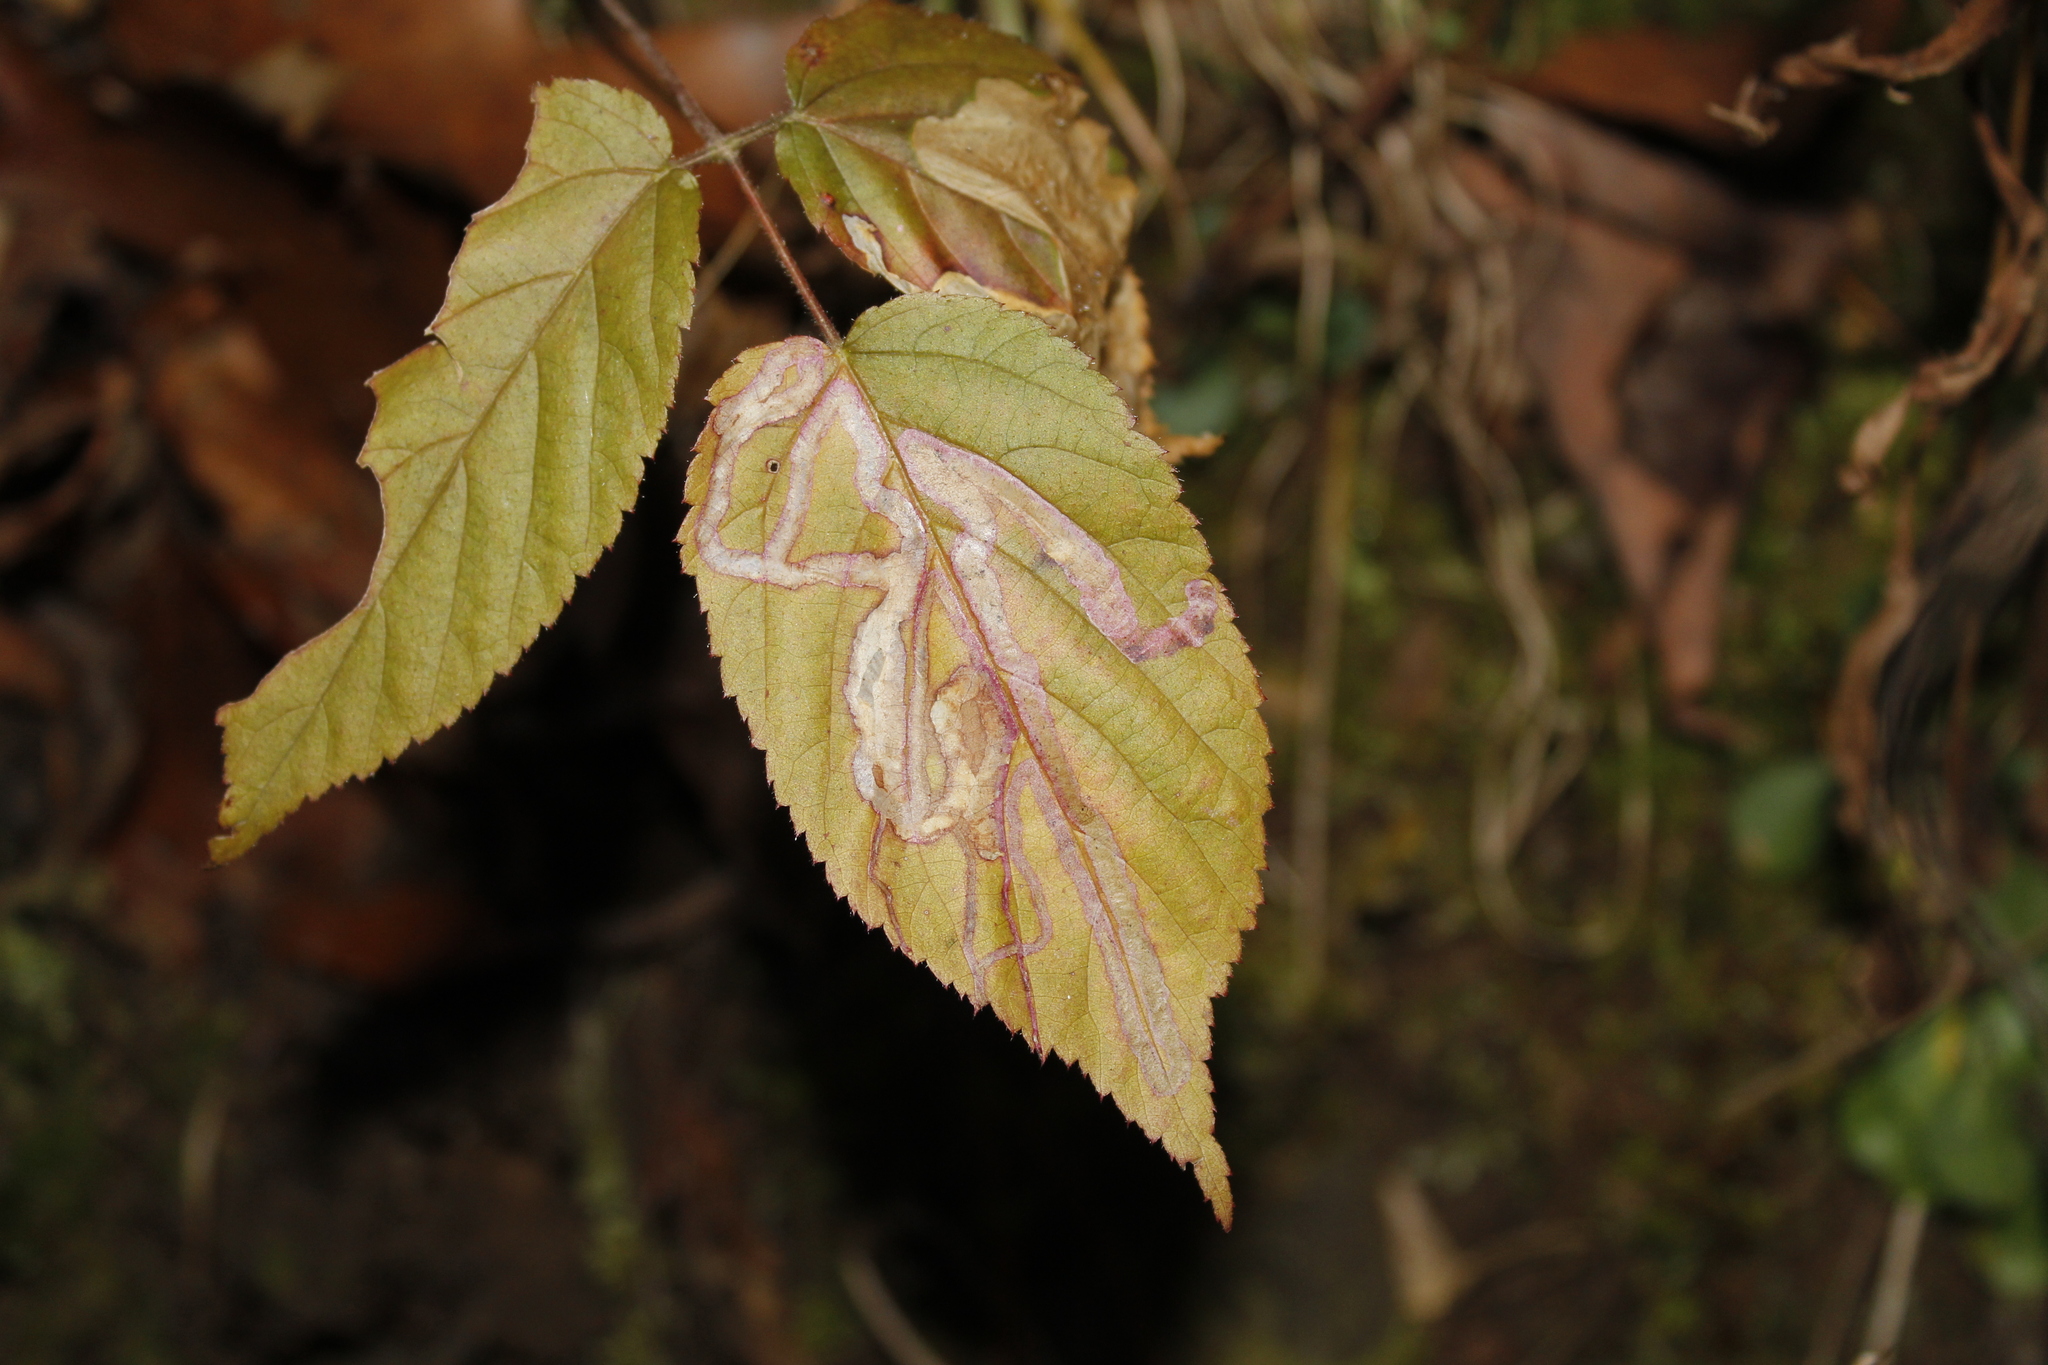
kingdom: Animalia
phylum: Arthropoda
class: Insecta
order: Diptera
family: Agromyzidae
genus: Agromyza
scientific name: Agromyza vockerothi
